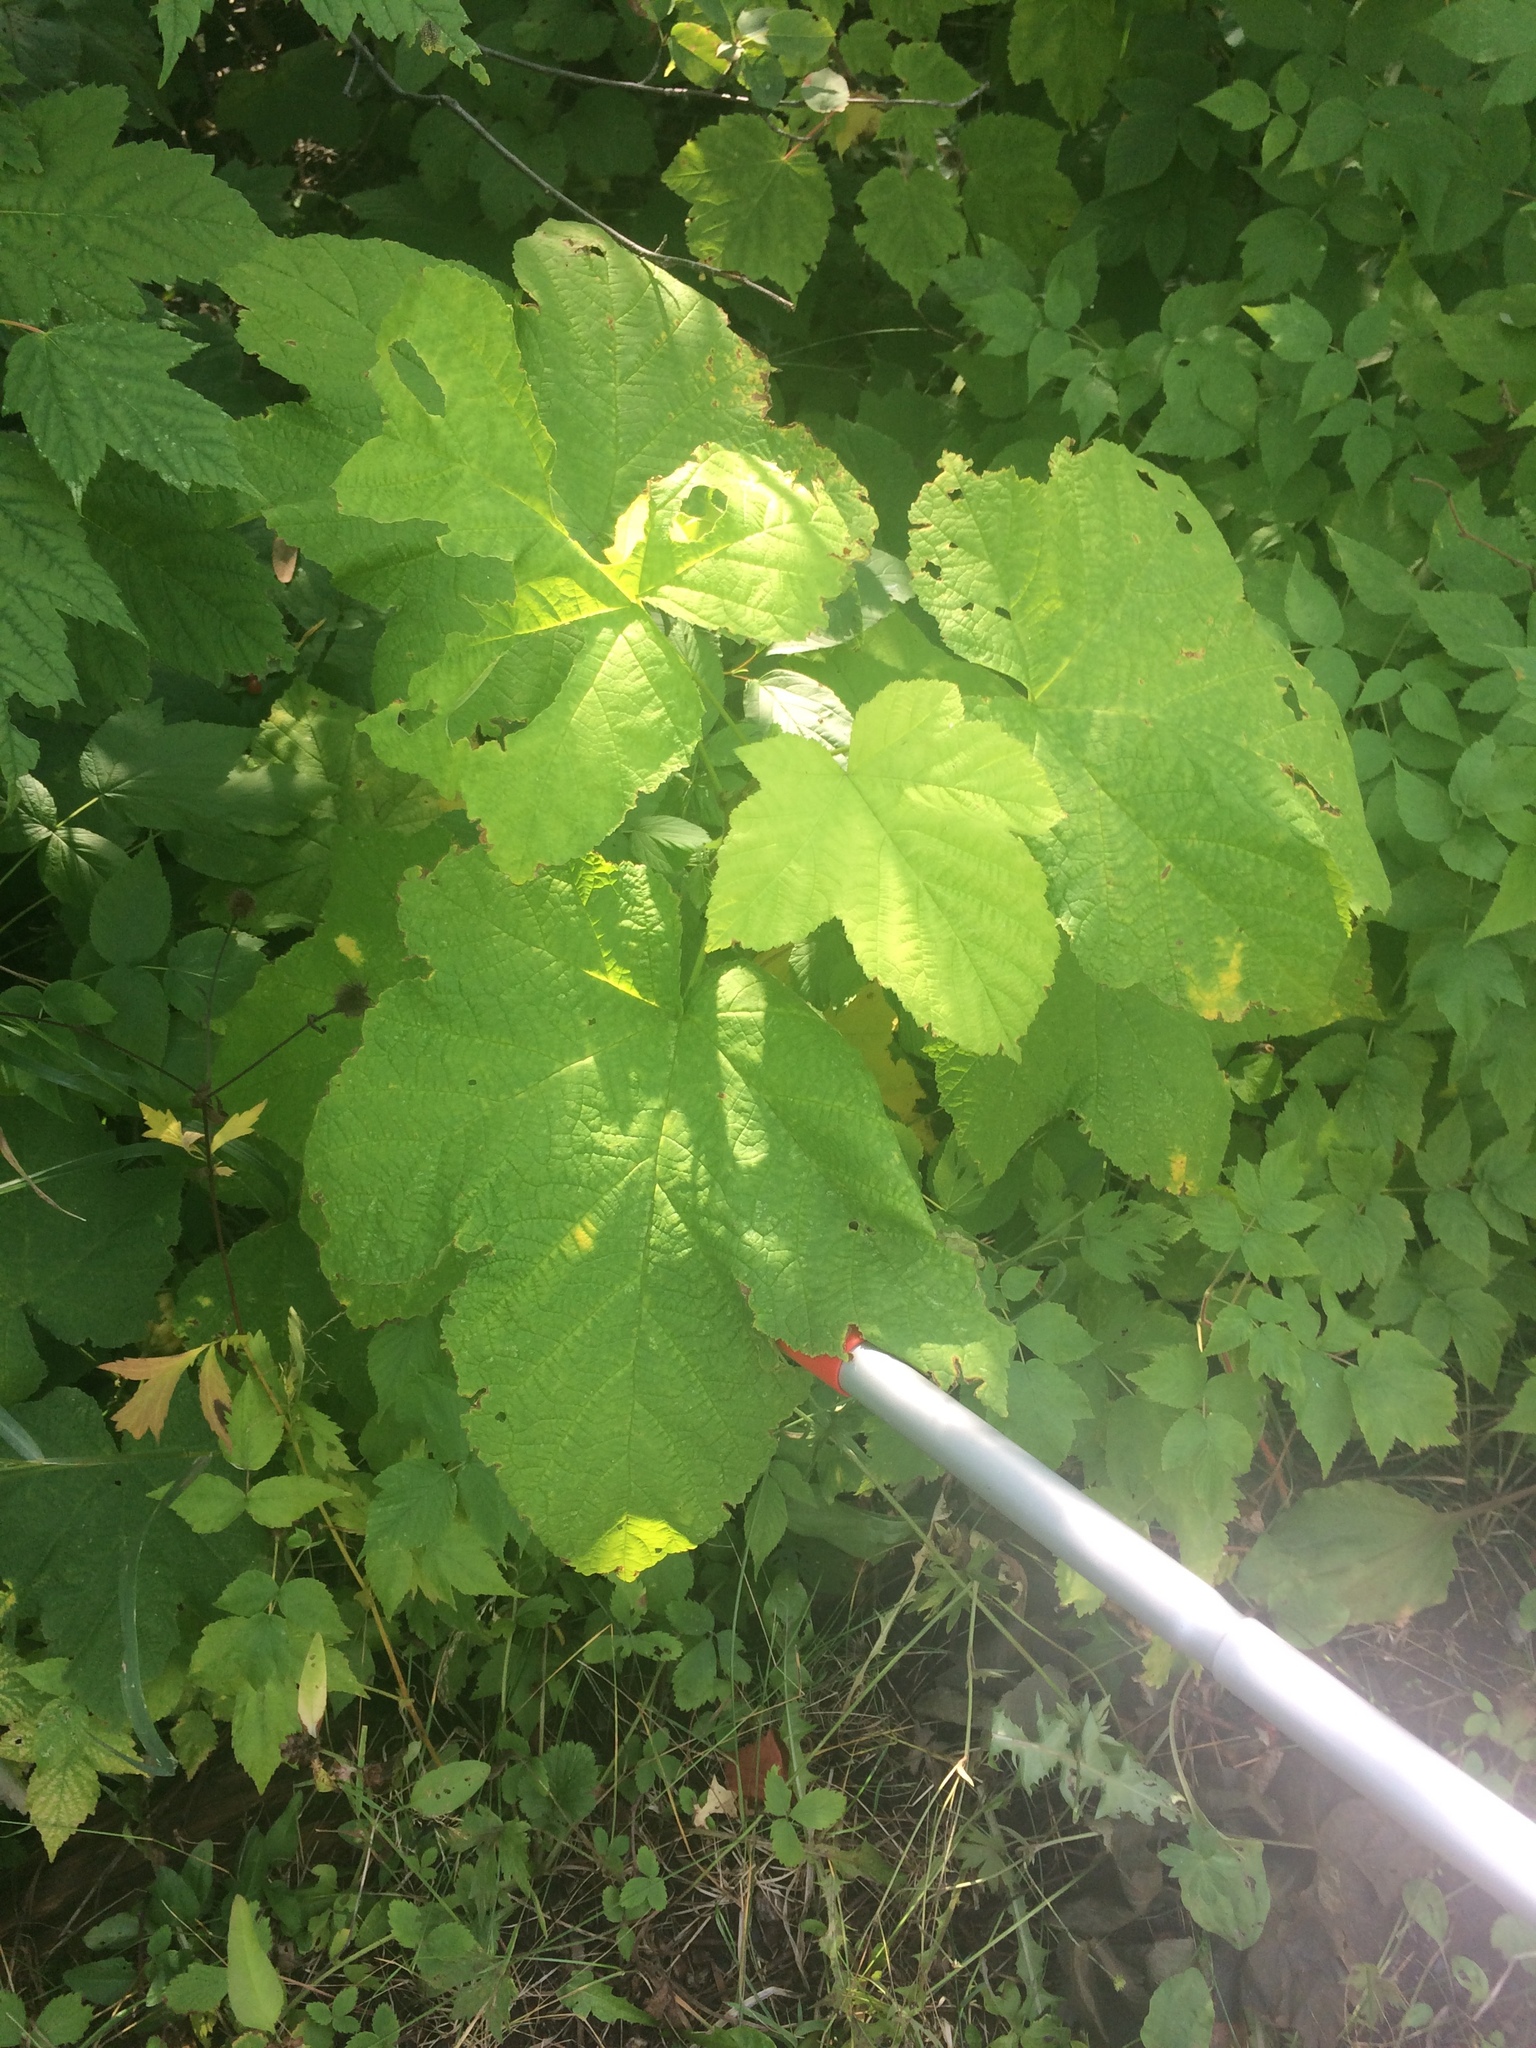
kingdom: Plantae
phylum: Tracheophyta
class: Magnoliopsida
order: Rosales
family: Rosaceae
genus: Rubus
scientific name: Rubus parviflorus
